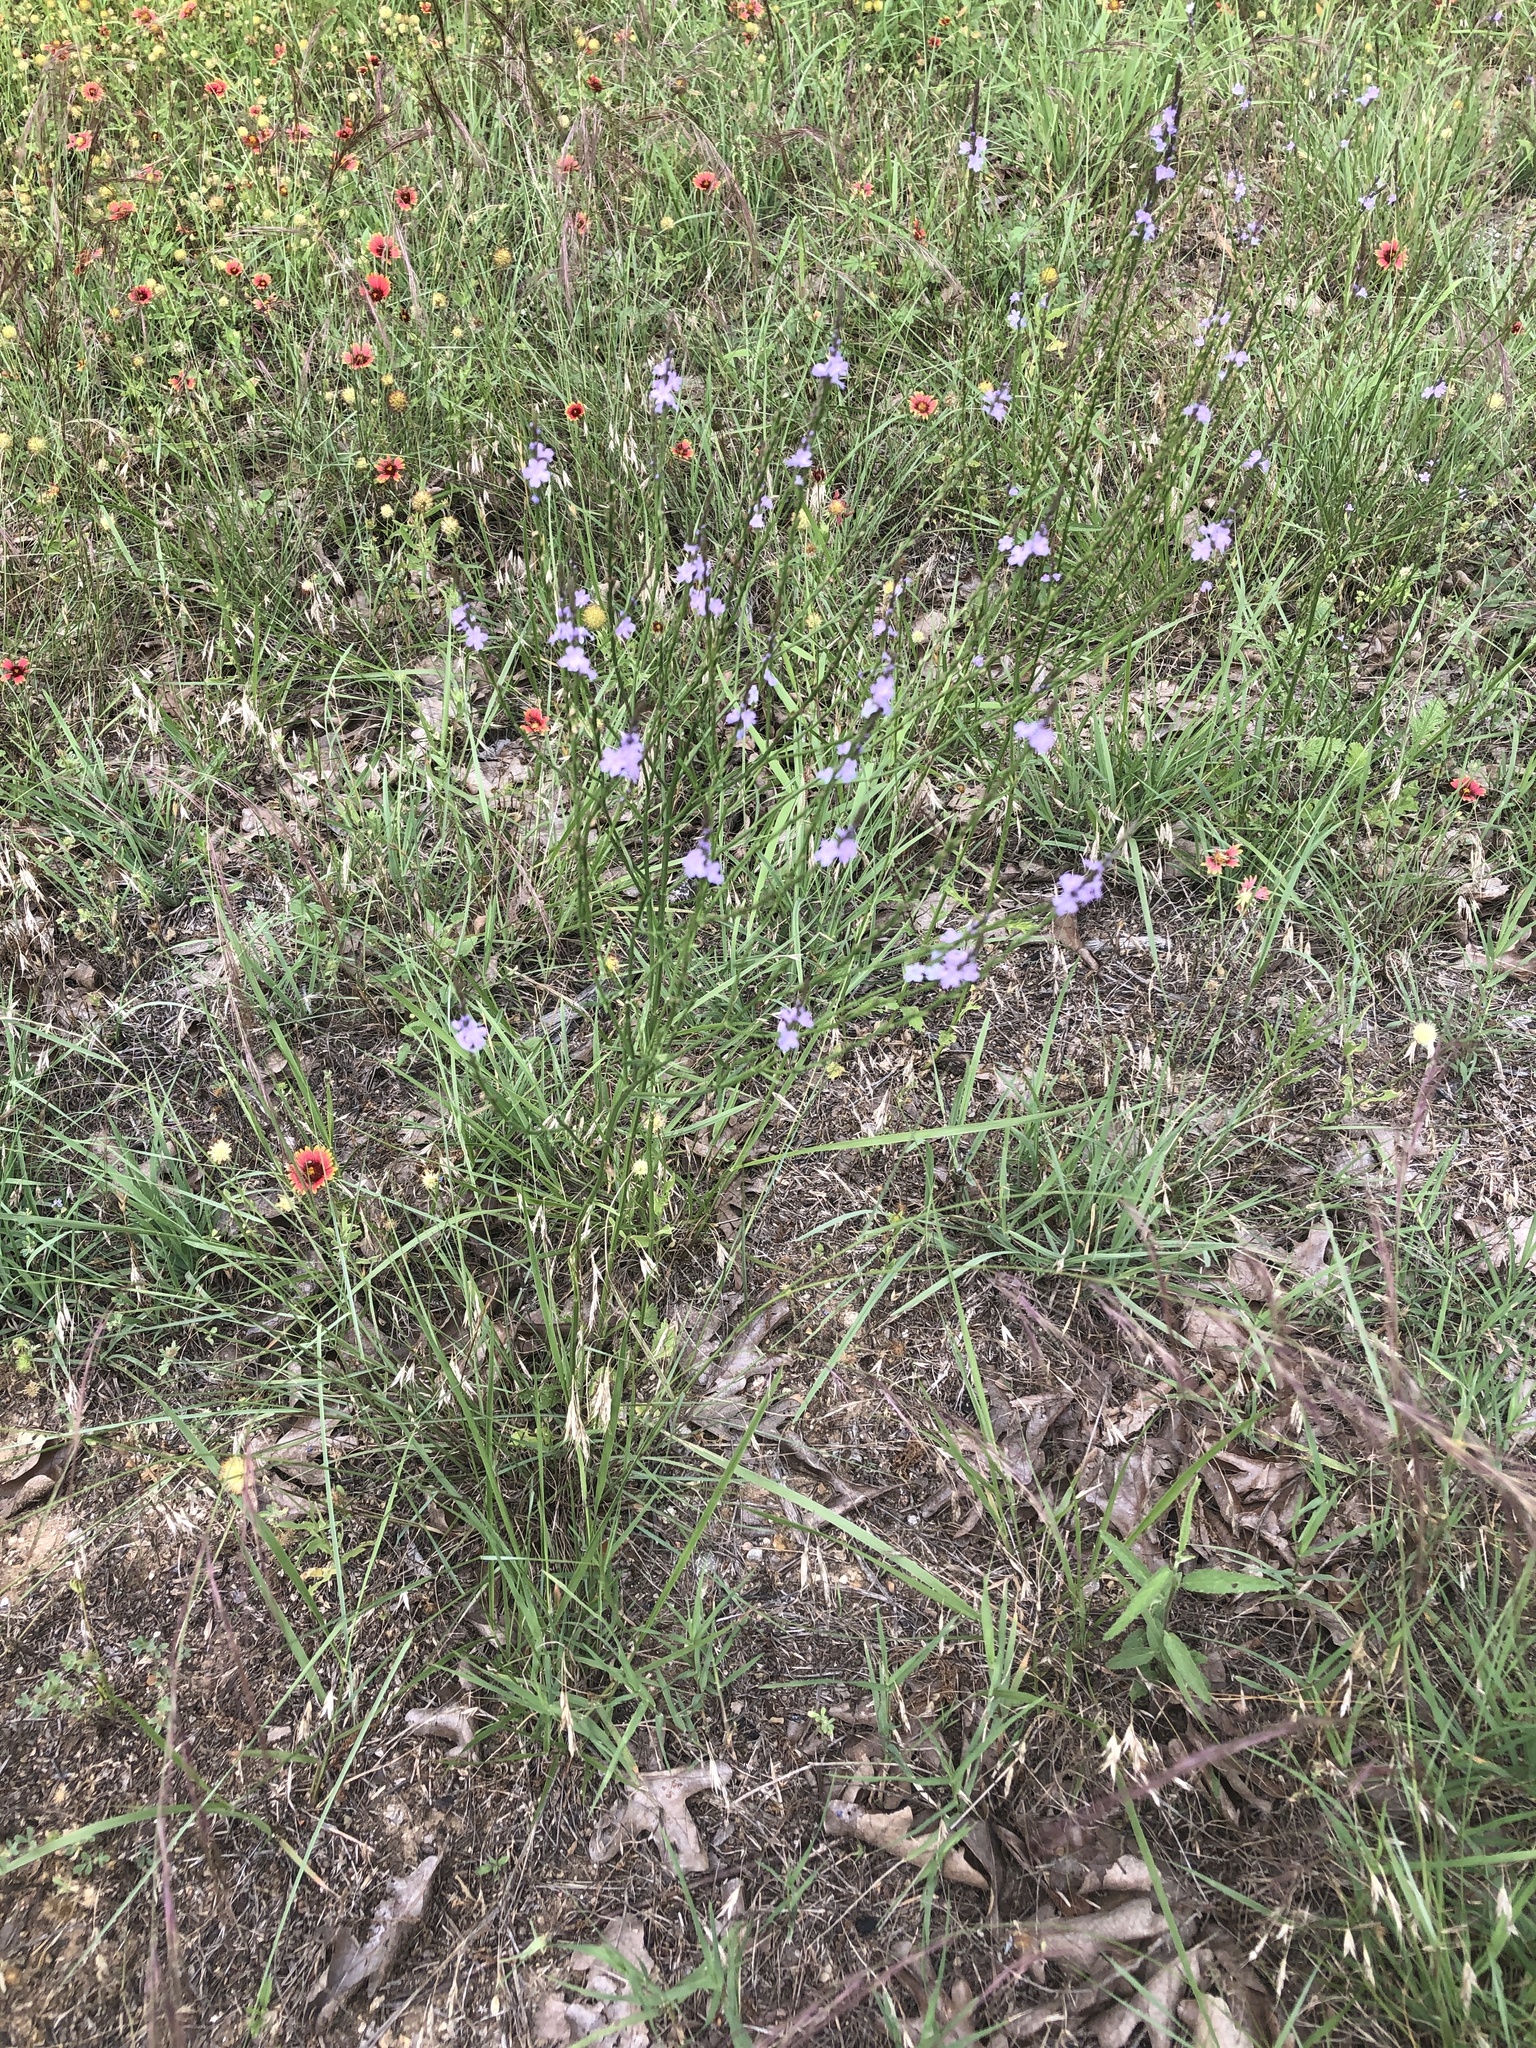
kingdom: Plantae
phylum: Tracheophyta
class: Magnoliopsida
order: Lamiales
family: Verbenaceae
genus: Verbena
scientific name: Verbena halei
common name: Texas vervain
